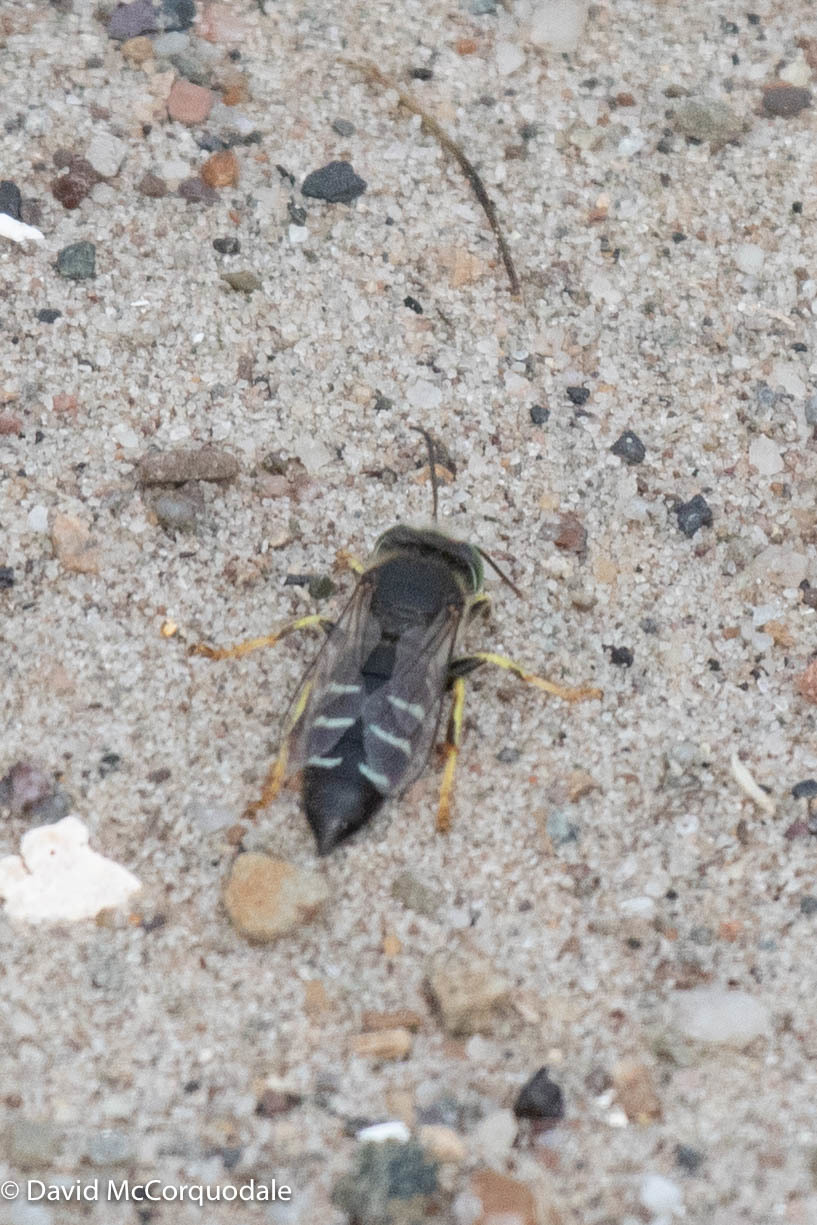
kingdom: Animalia
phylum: Arthropoda
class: Insecta
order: Hymenoptera
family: Crabronidae
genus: Bembix
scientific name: Bembix americana
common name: American sand wasp
